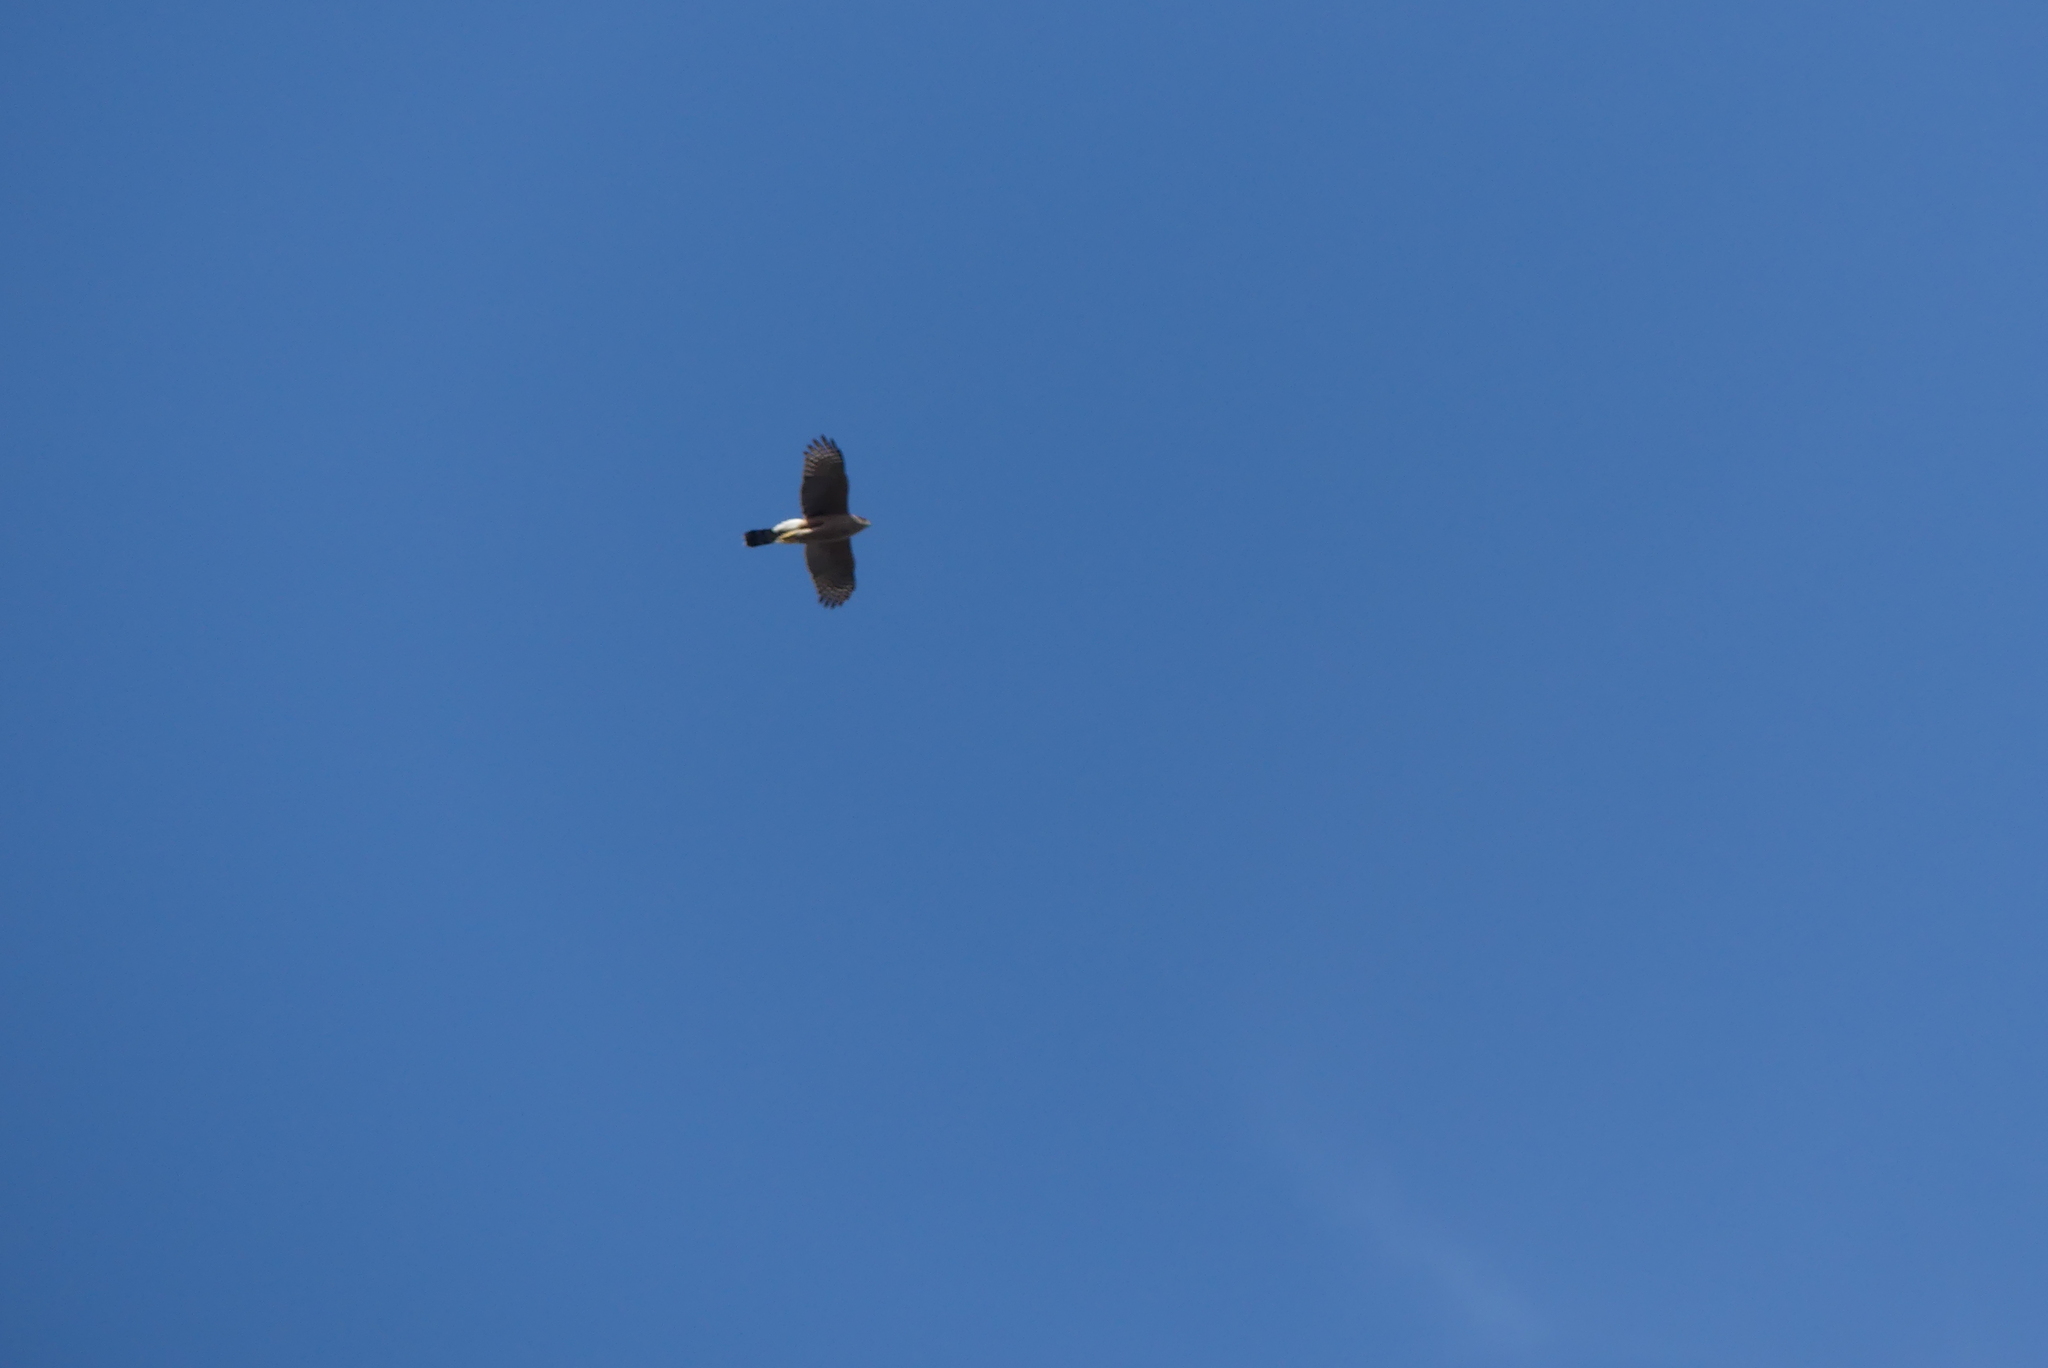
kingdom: Animalia
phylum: Chordata
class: Aves
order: Accipitriformes
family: Accipitridae
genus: Accipiter
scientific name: Accipiter cooperii
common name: Cooper's hawk
